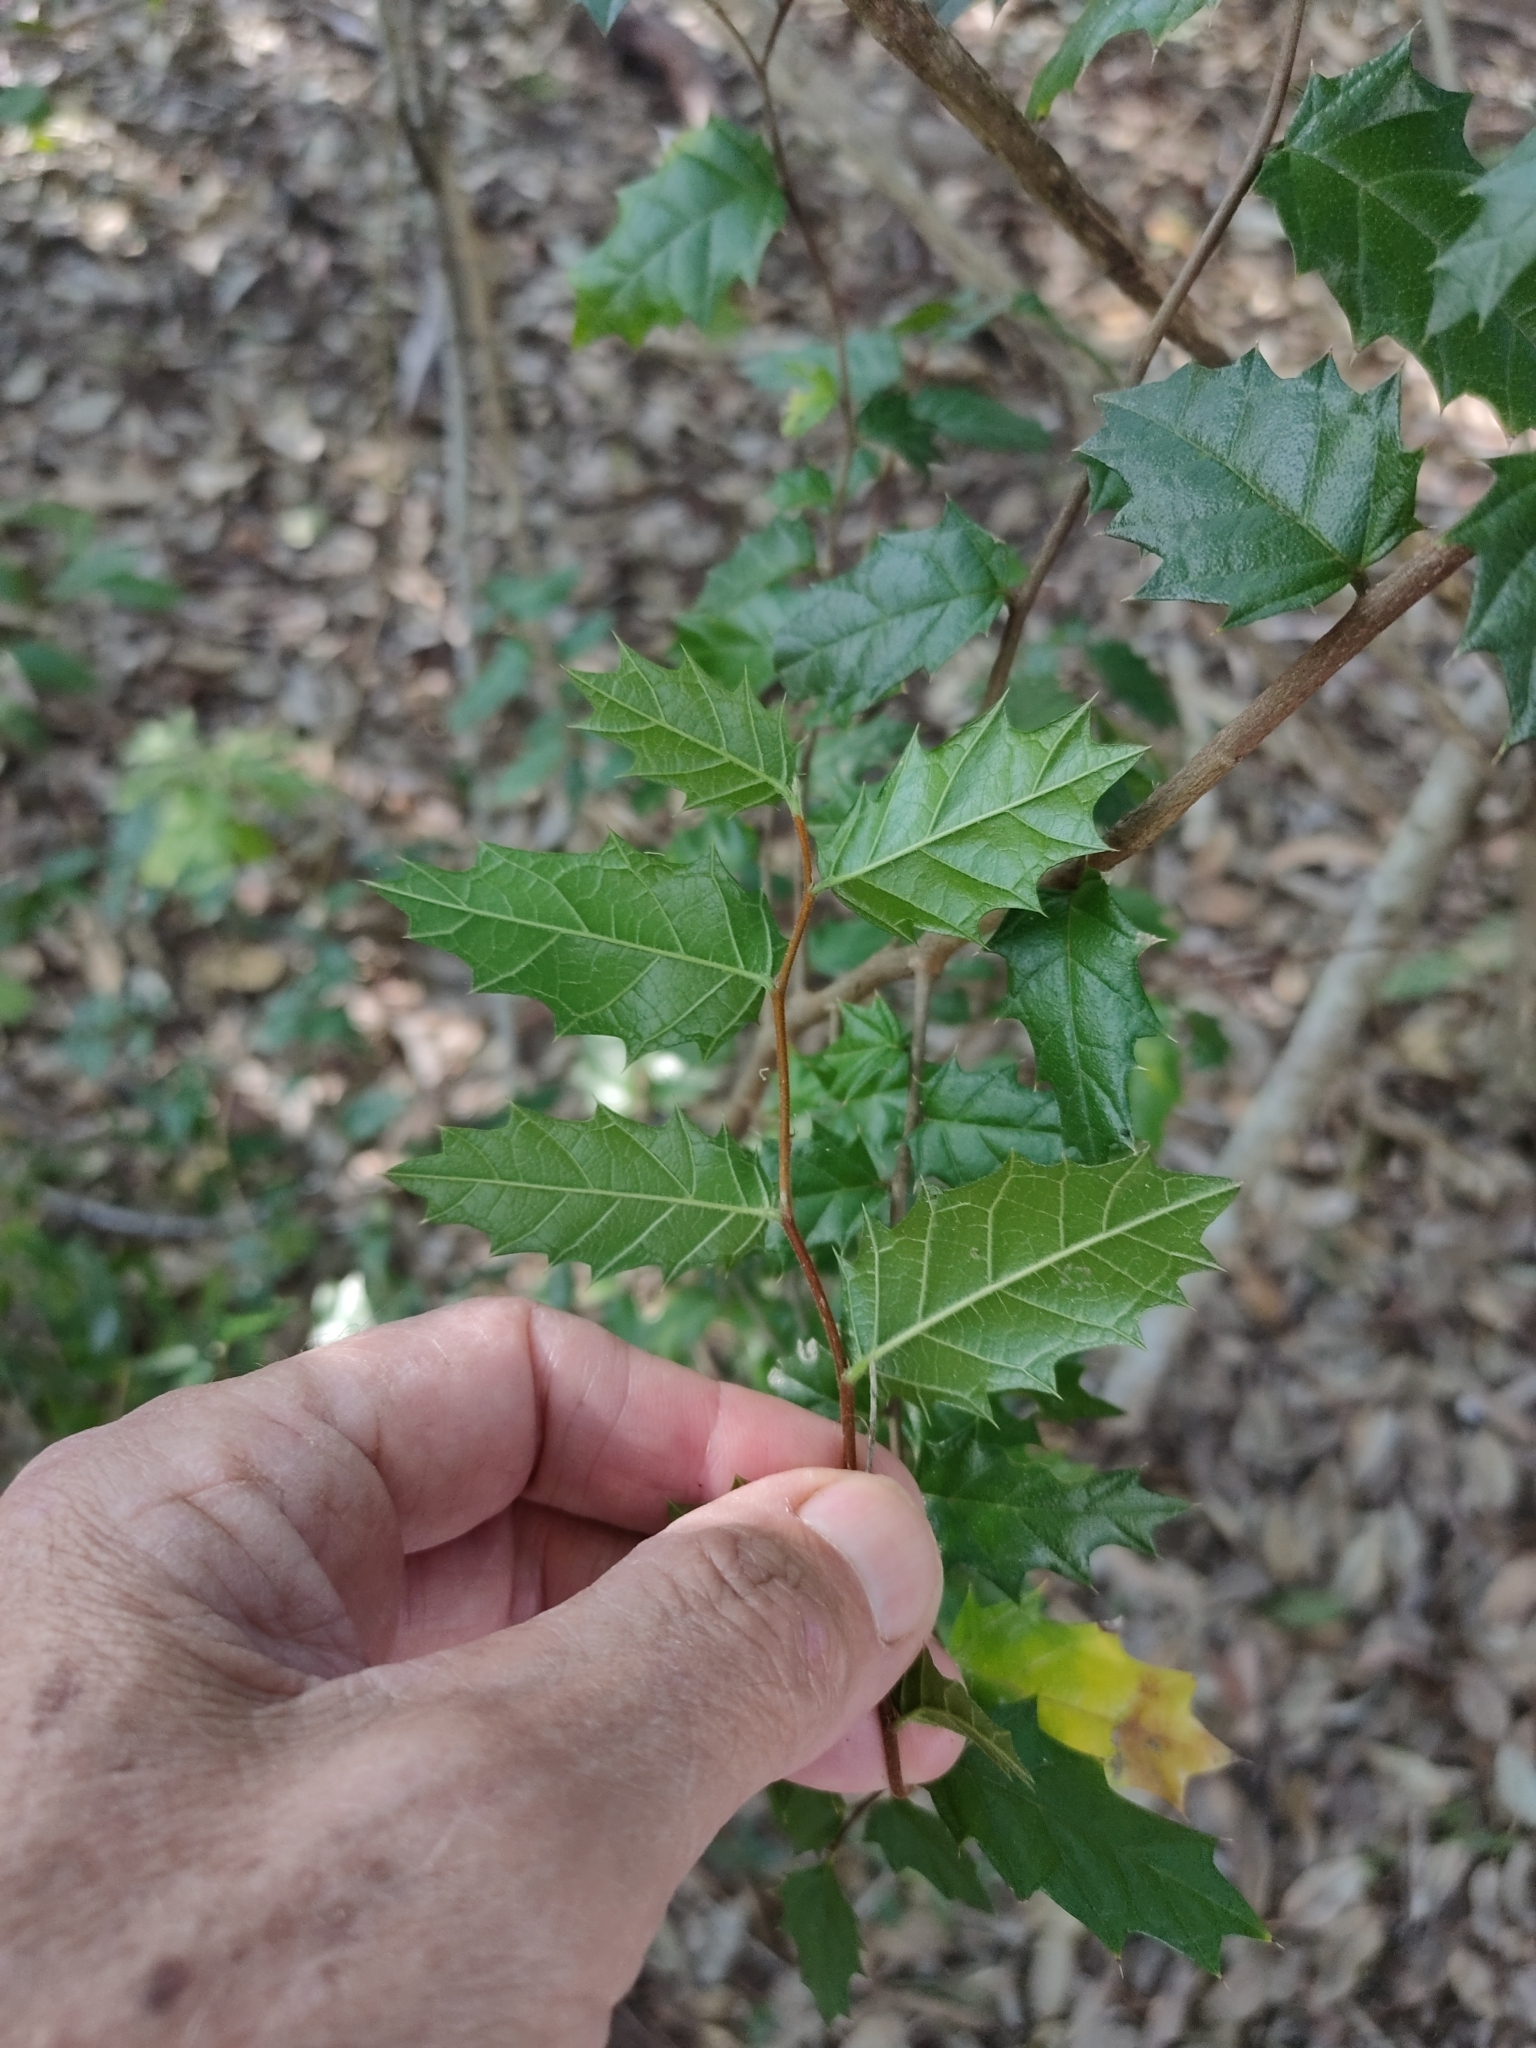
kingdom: Plantae
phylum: Tracheophyta
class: Magnoliopsida
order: Rosales
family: Cannabaceae
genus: Aphananthe
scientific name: Aphananthe philippinensis
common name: Wild holly
